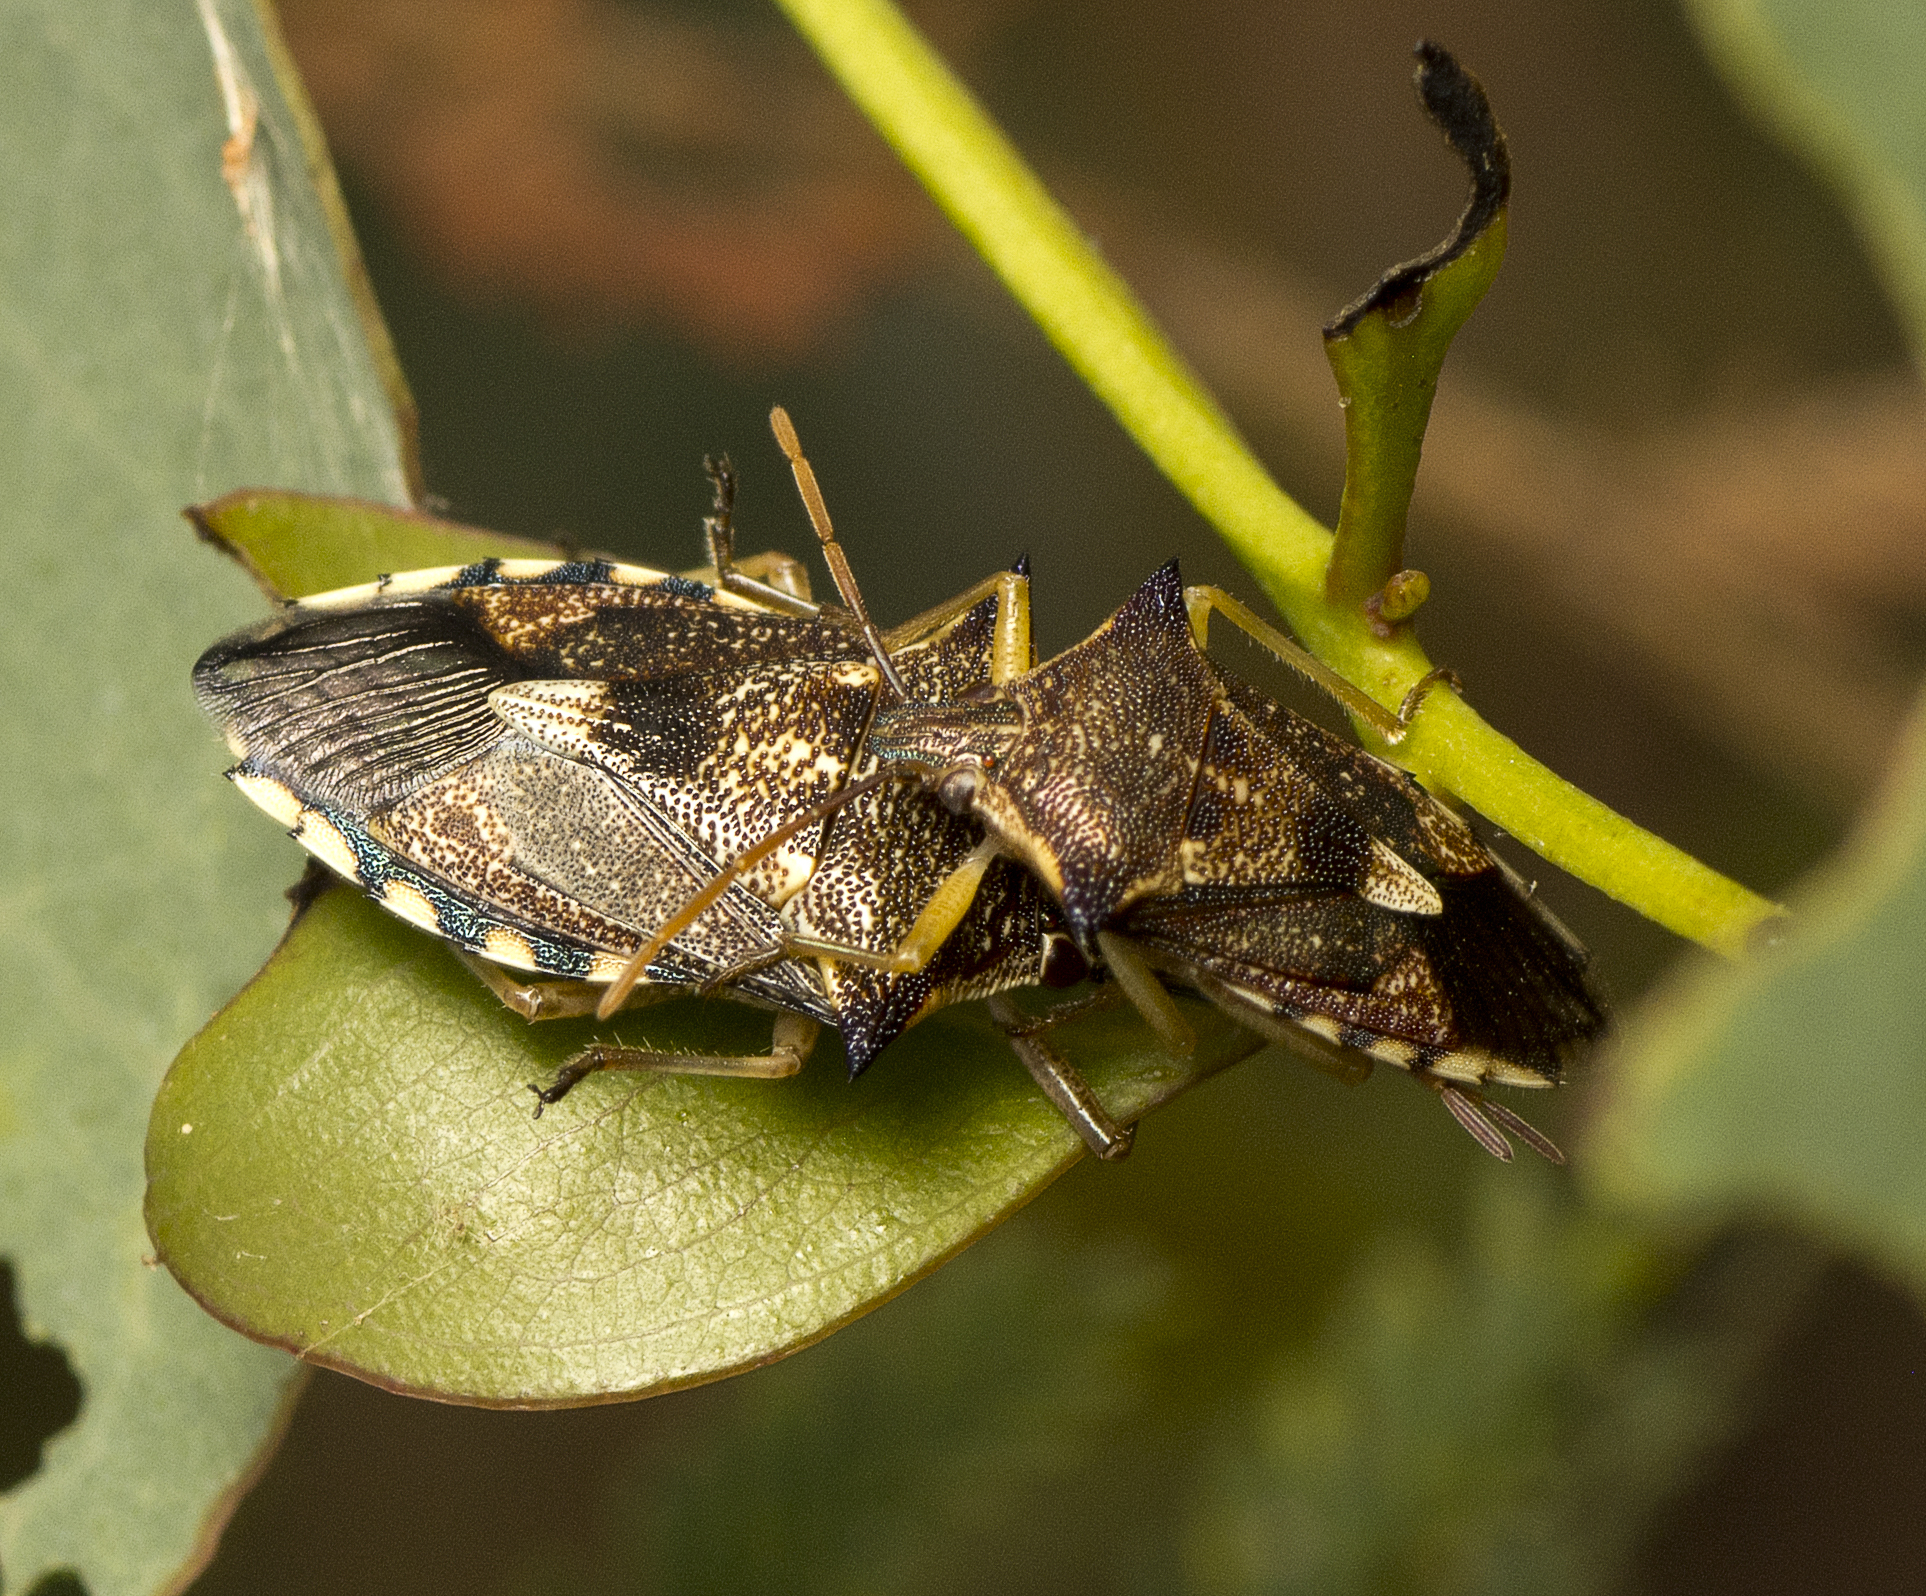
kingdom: Animalia
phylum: Arthropoda
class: Insecta
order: Hemiptera
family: Pentatomidae
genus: Oechalia
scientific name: Oechalia schellenbergii
